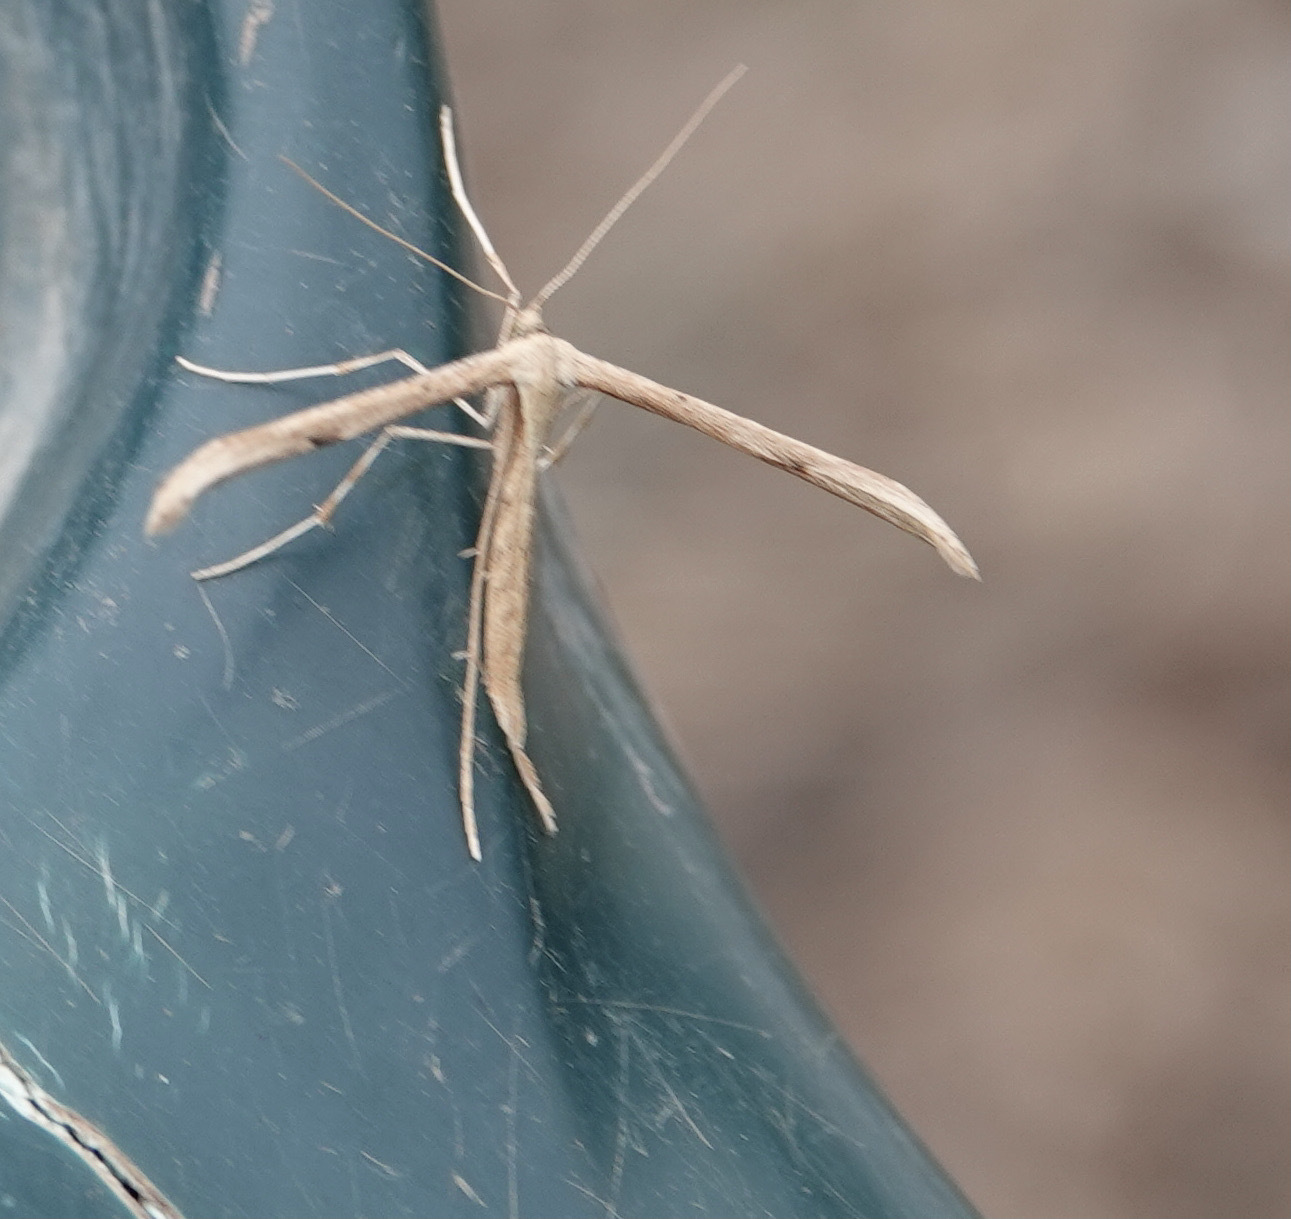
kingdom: Animalia
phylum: Arthropoda
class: Insecta
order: Lepidoptera
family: Pterophoridae
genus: Emmelina
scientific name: Emmelina monodactyla
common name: Common plume
